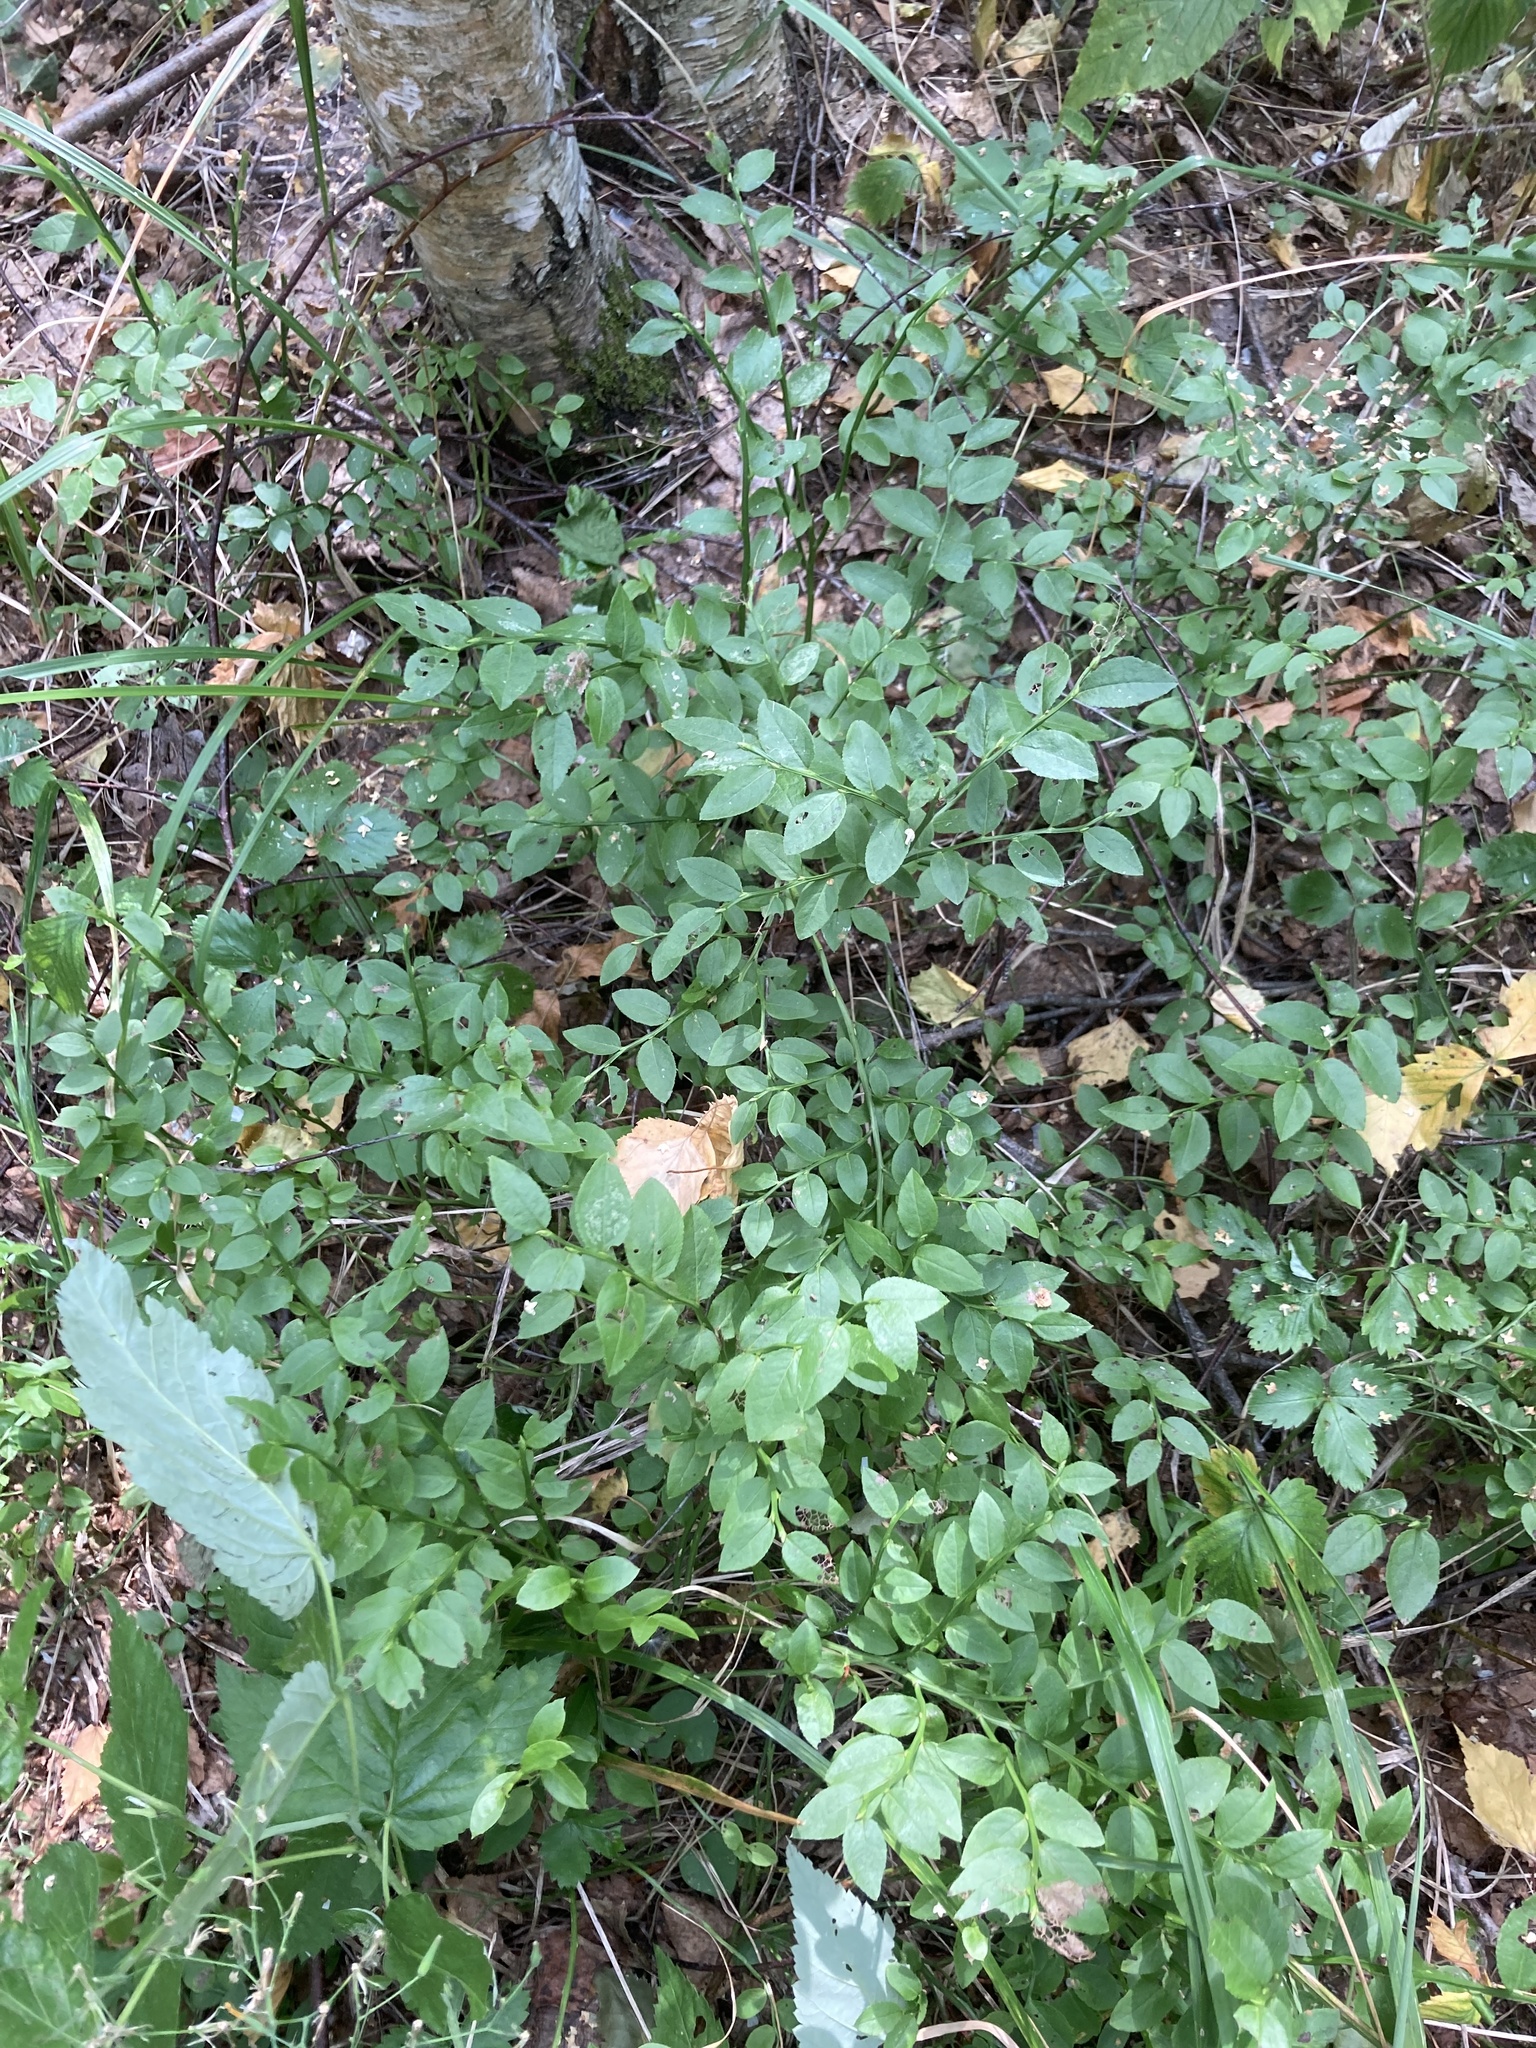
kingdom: Plantae
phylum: Tracheophyta
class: Magnoliopsida
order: Ericales
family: Ericaceae
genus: Vaccinium
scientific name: Vaccinium myrtillus
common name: Bilberry
